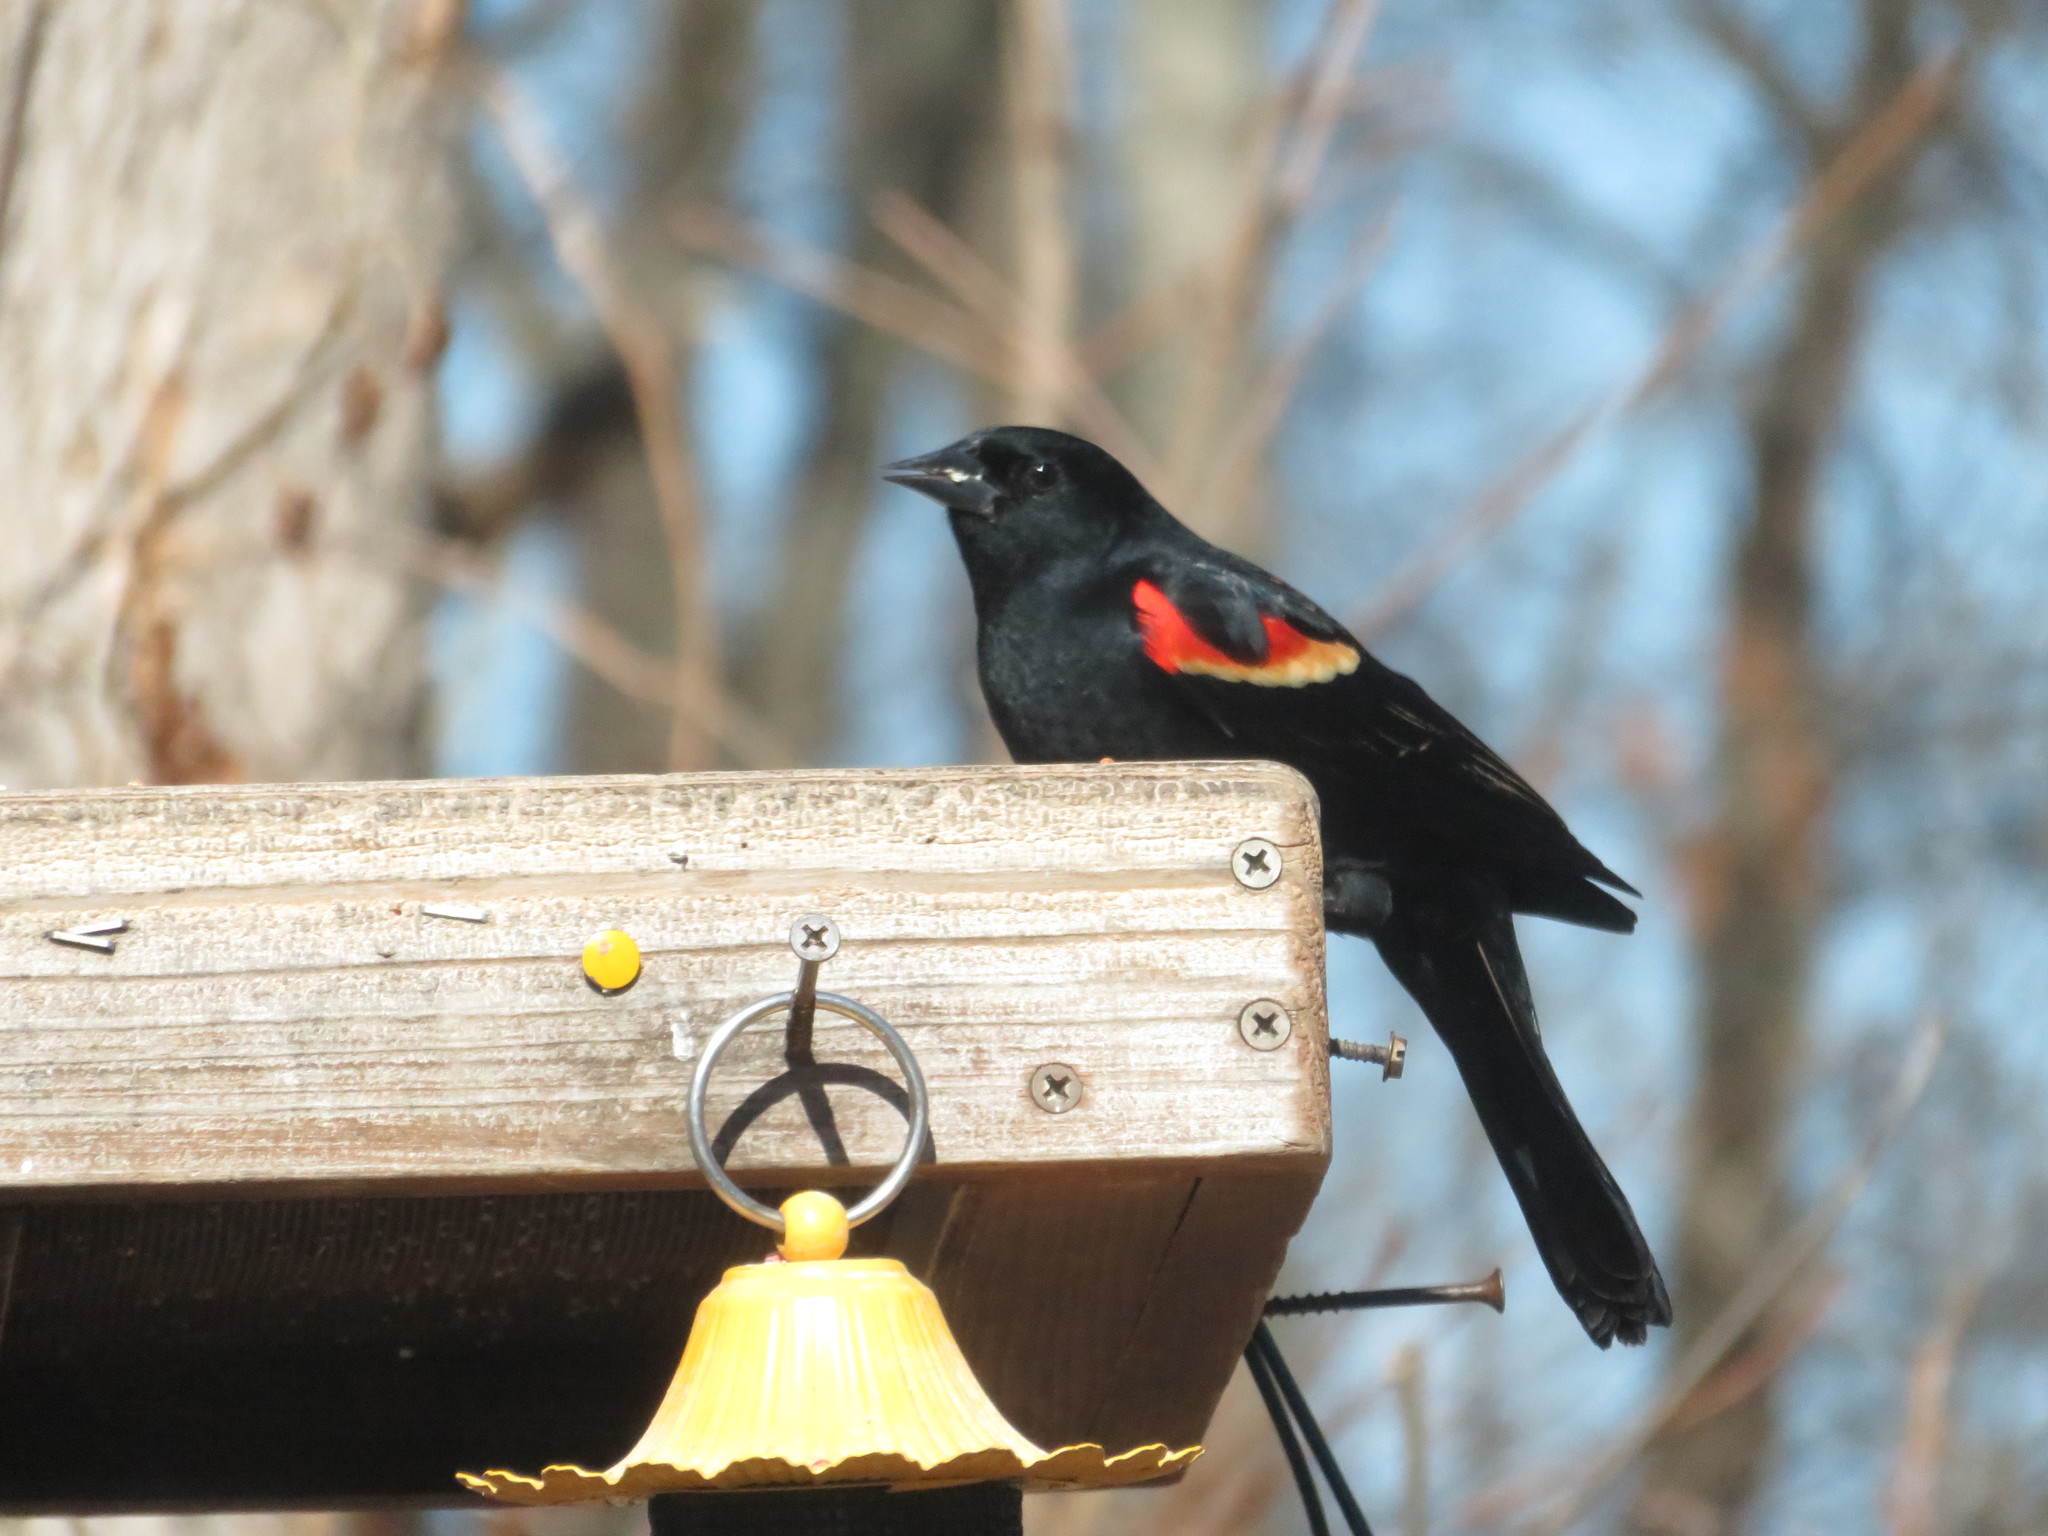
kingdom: Animalia
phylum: Chordata
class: Aves
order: Passeriformes
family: Icteridae
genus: Agelaius
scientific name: Agelaius phoeniceus
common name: Red-winged blackbird
